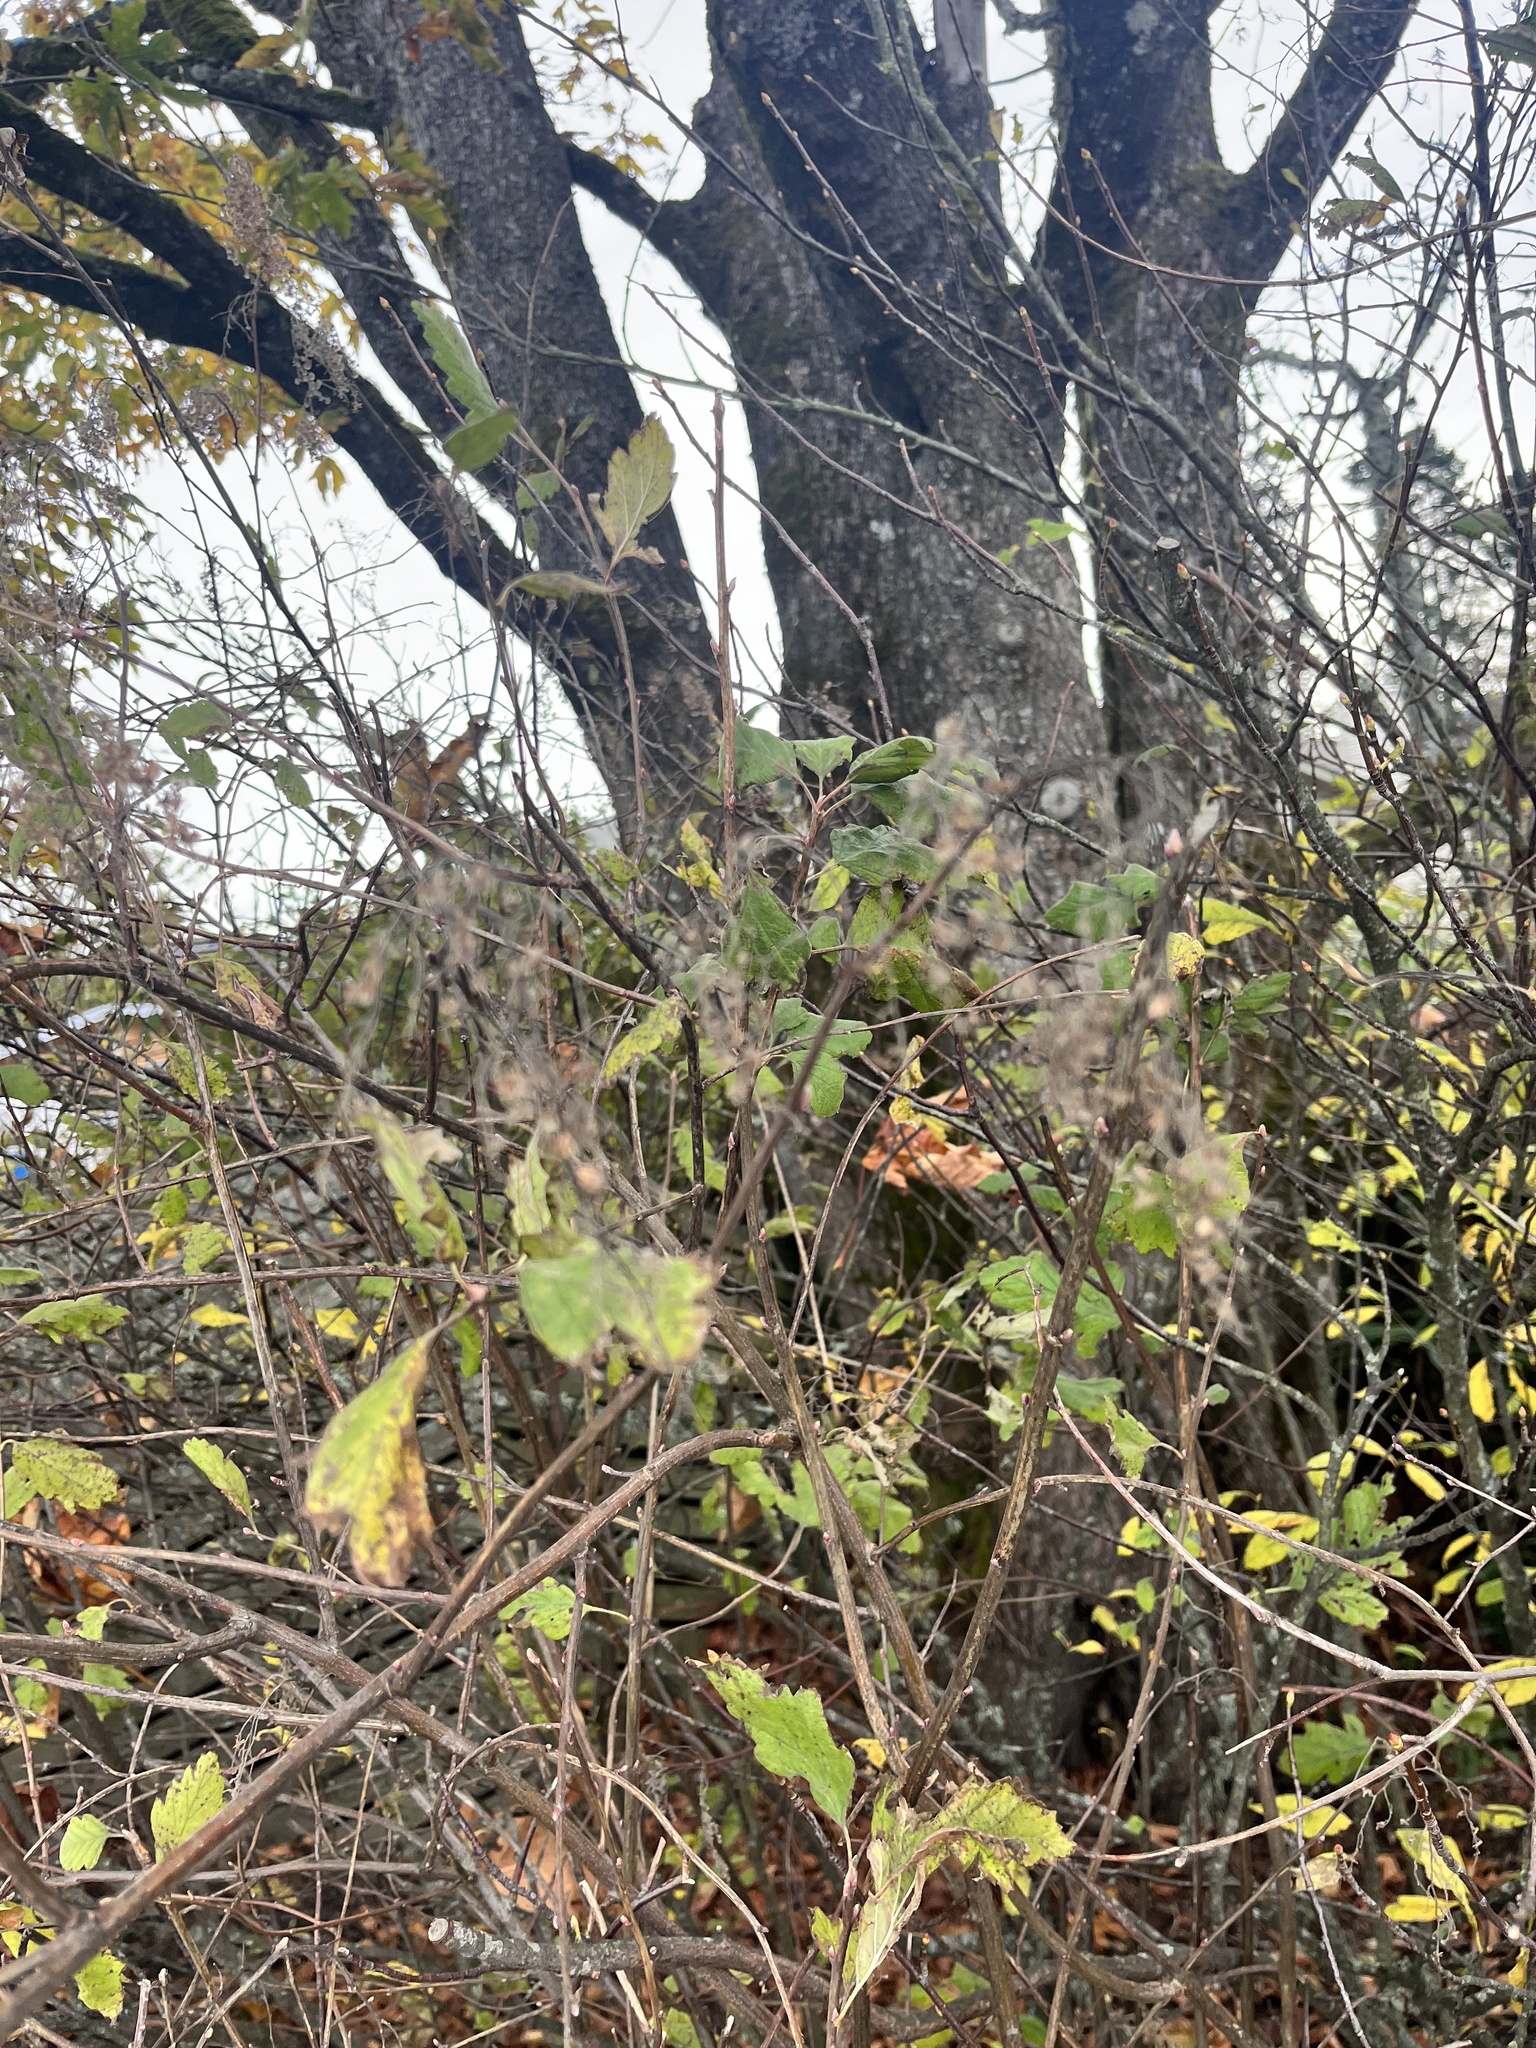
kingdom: Plantae
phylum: Tracheophyta
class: Magnoliopsida
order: Rosales
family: Rosaceae
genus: Holodiscus
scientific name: Holodiscus discolor
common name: Oceanspray
